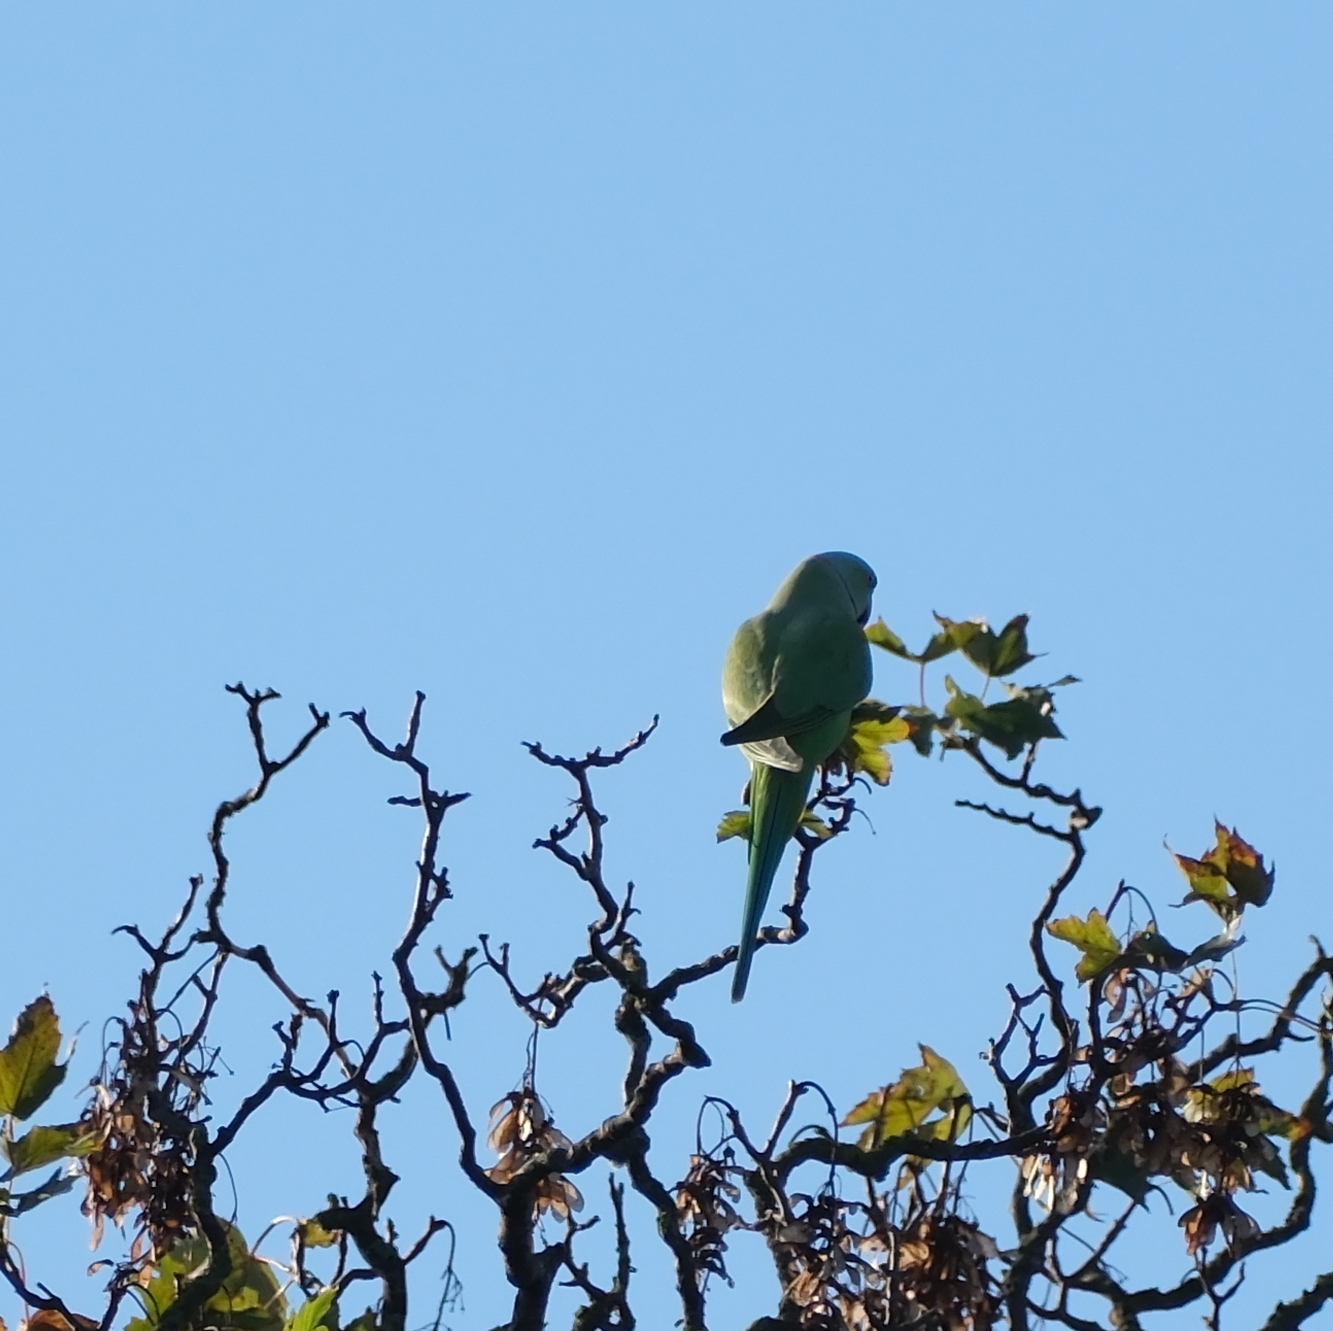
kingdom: Animalia
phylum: Chordata
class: Aves
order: Psittaciformes
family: Psittacidae
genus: Psittacula
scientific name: Psittacula krameri
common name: Rose-ringed parakeet
